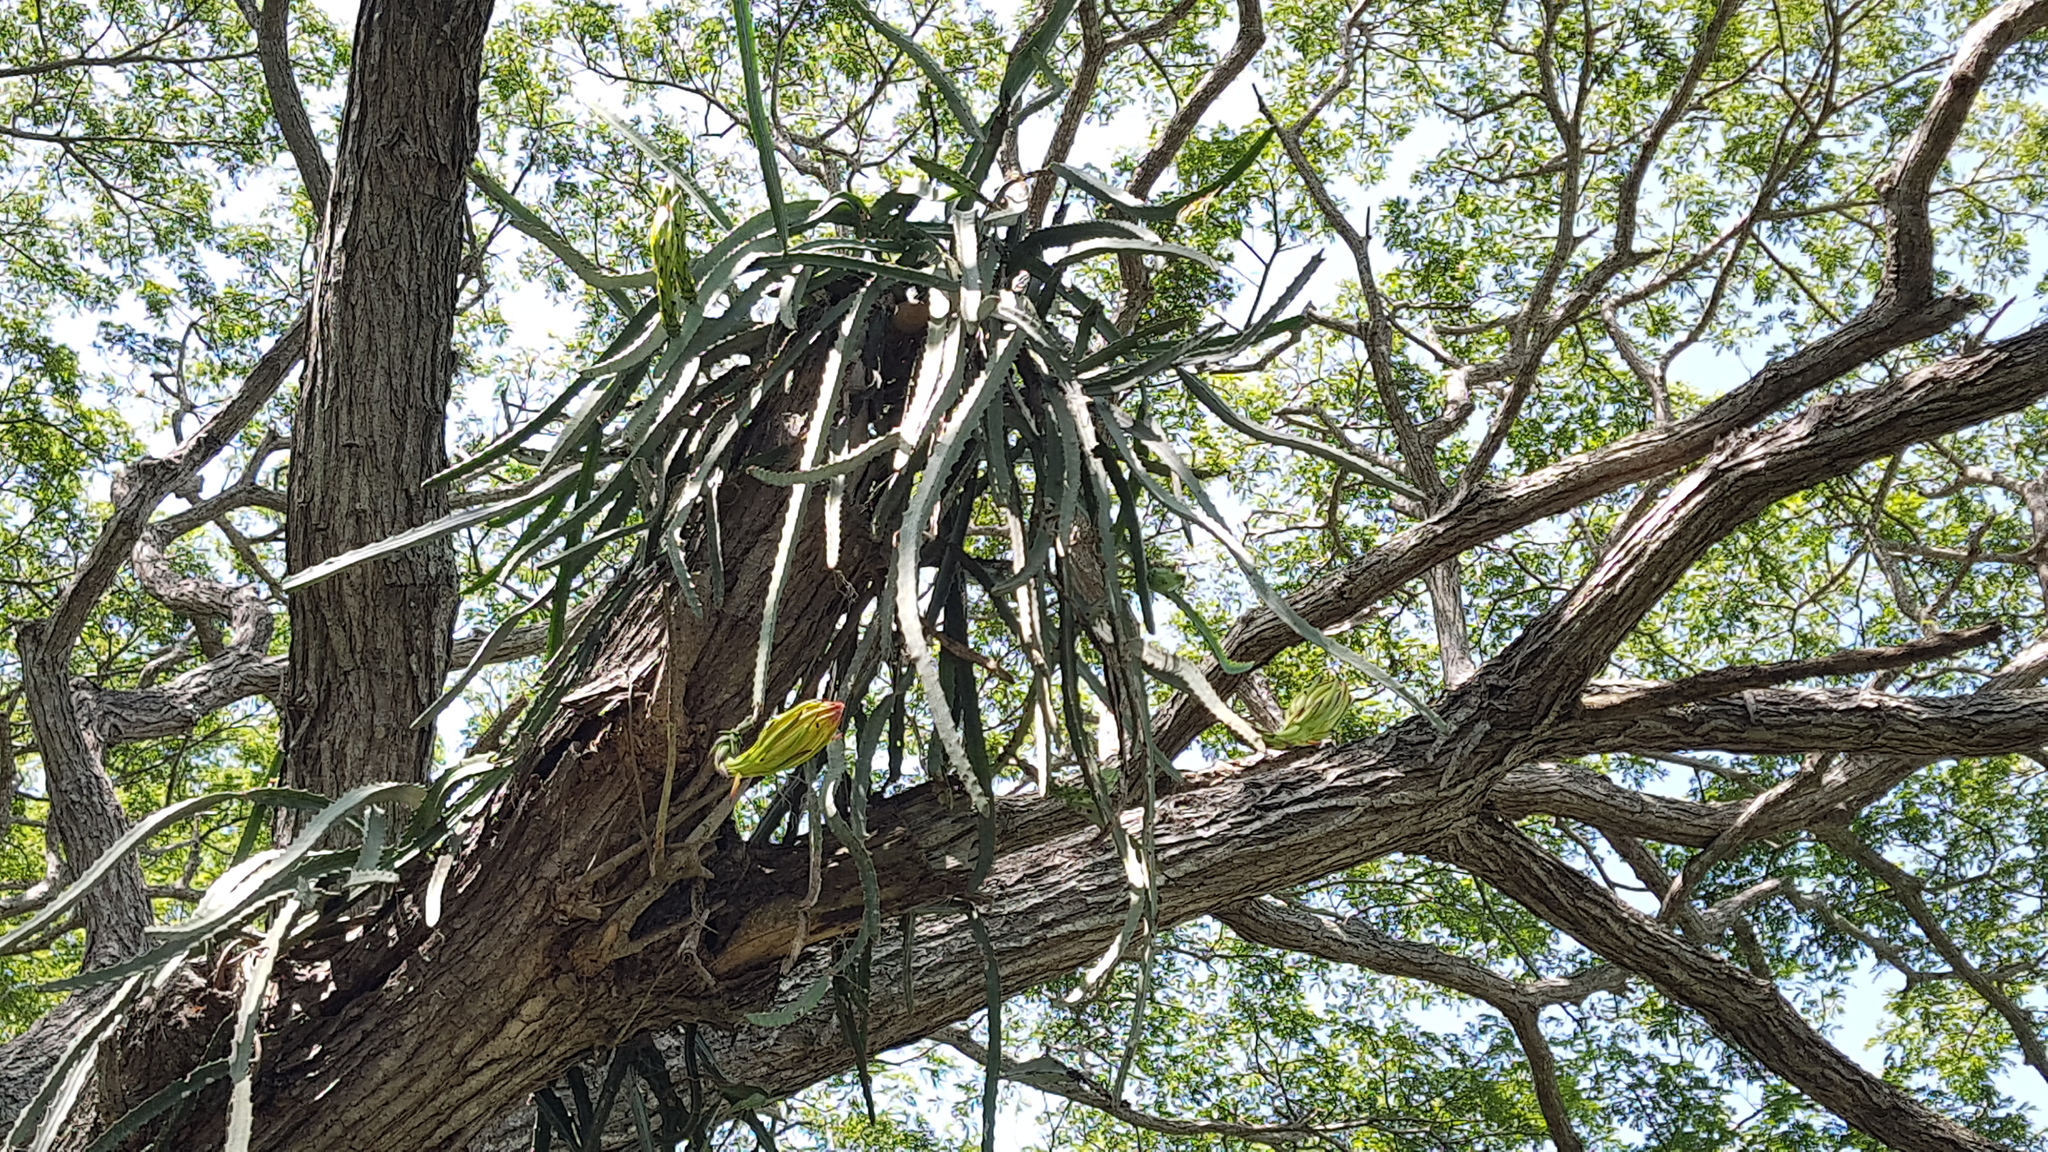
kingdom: Plantae
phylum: Tracheophyta
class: Magnoliopsida
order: Caryophyllales
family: Cactaceae
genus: Selenicereus
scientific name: Selenicereus monacanthus
